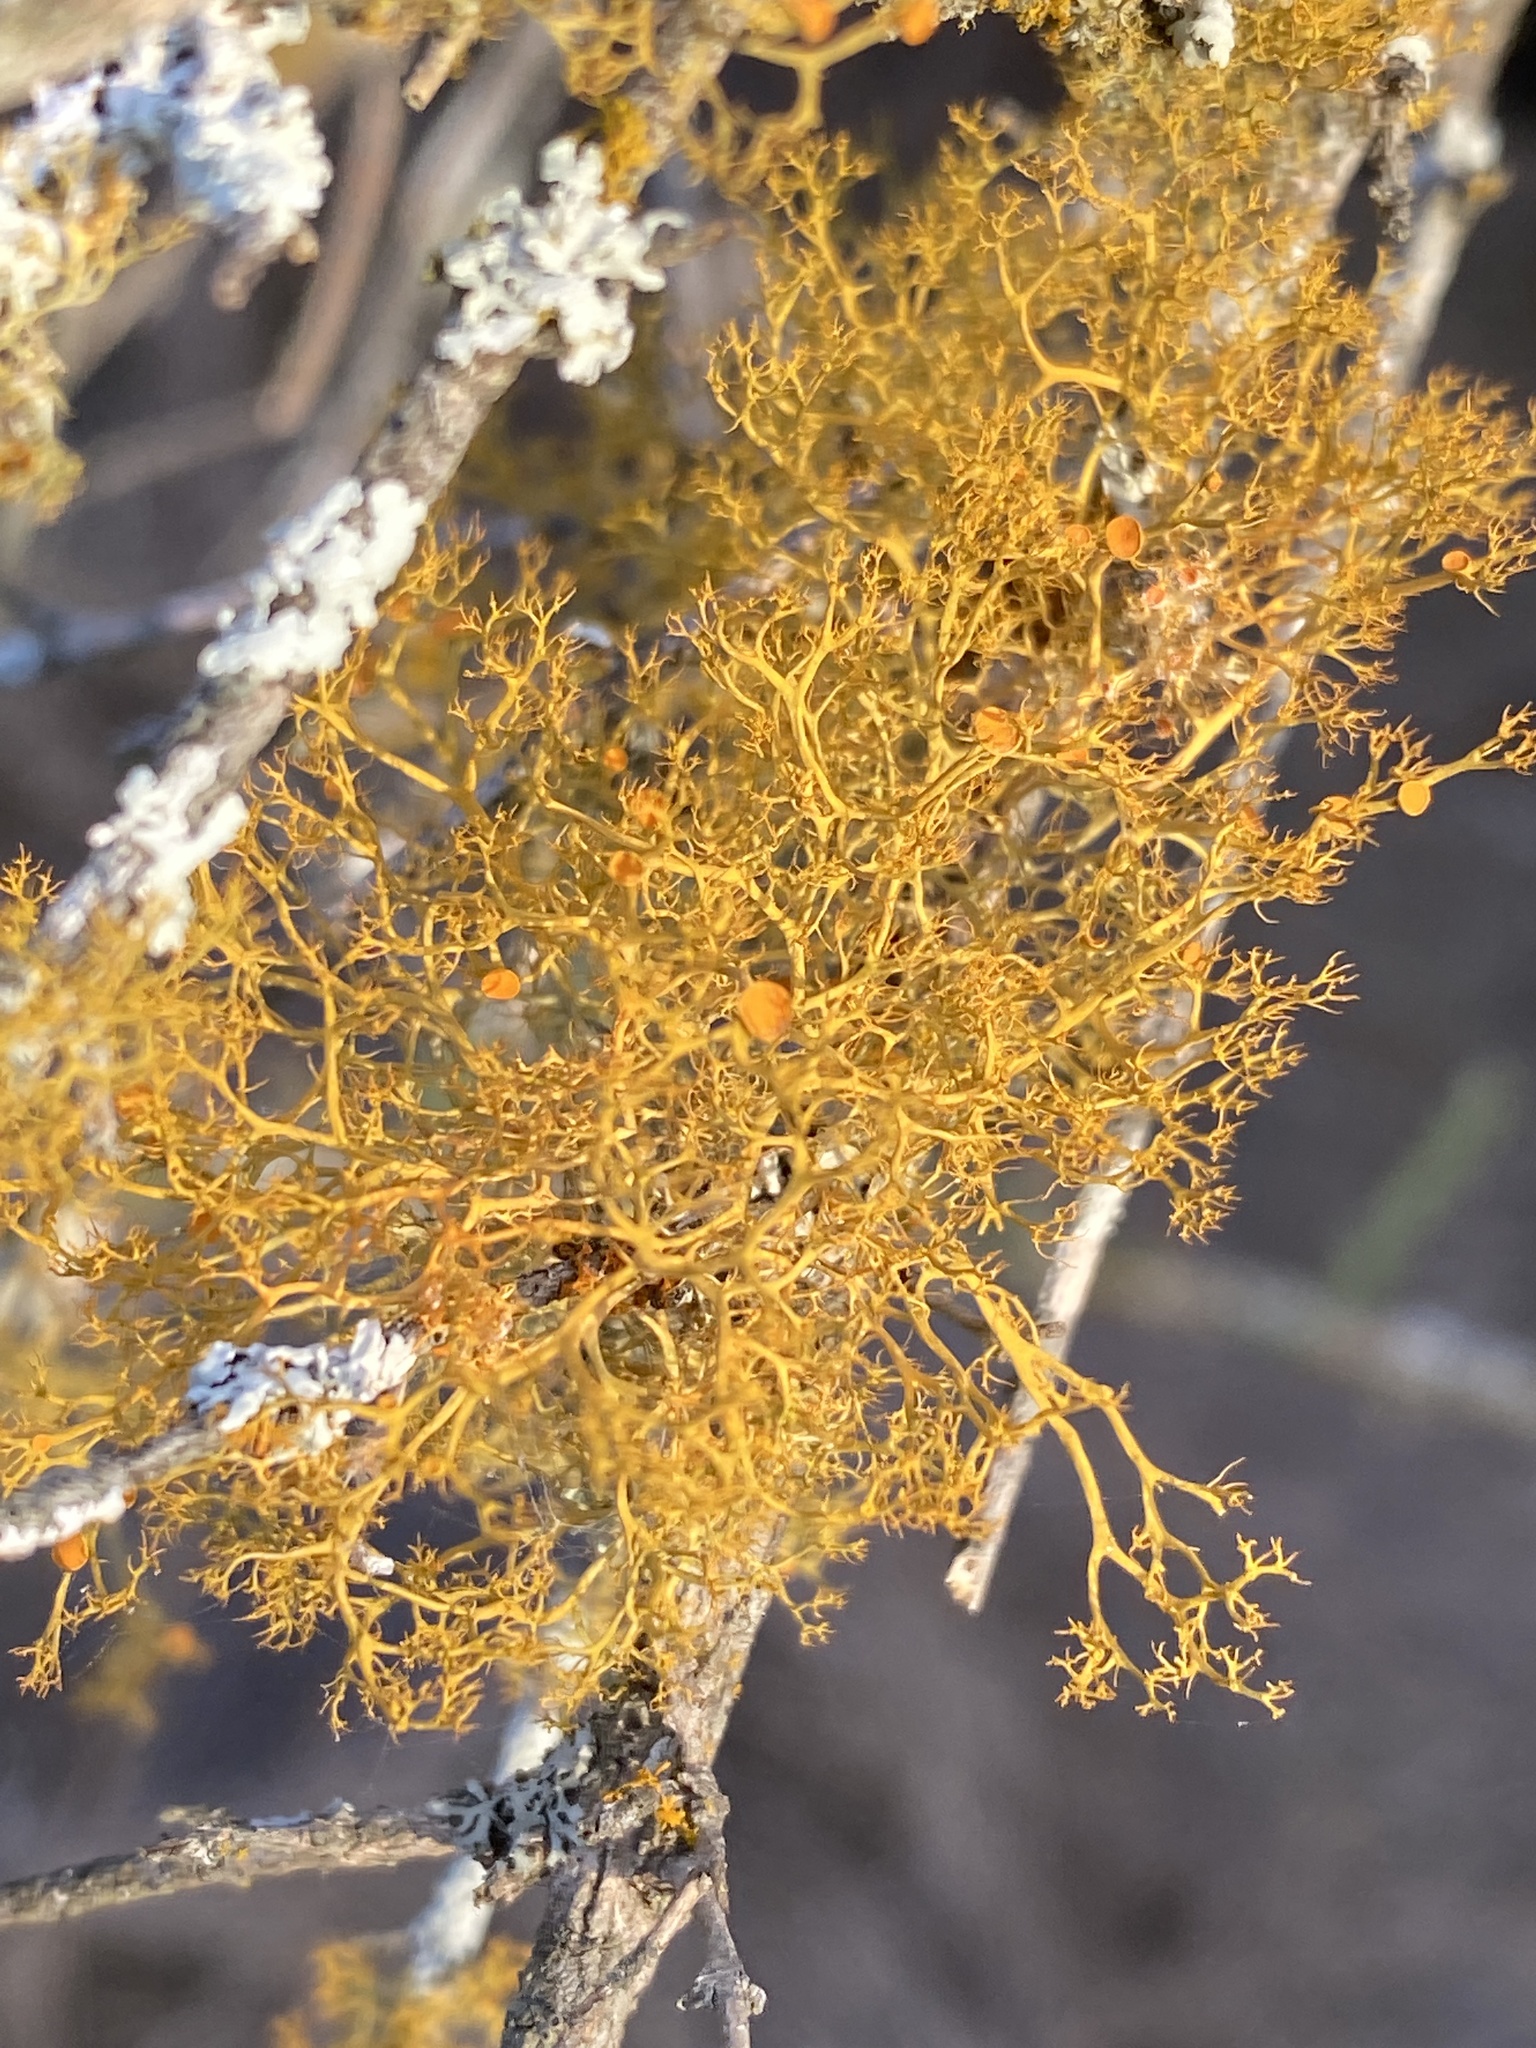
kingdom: Fungi
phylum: Ascomycota
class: Lecanoromycetes
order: Teloschistales
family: Teloschistaceae
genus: Teloschistes
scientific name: Teloschistes exilis
